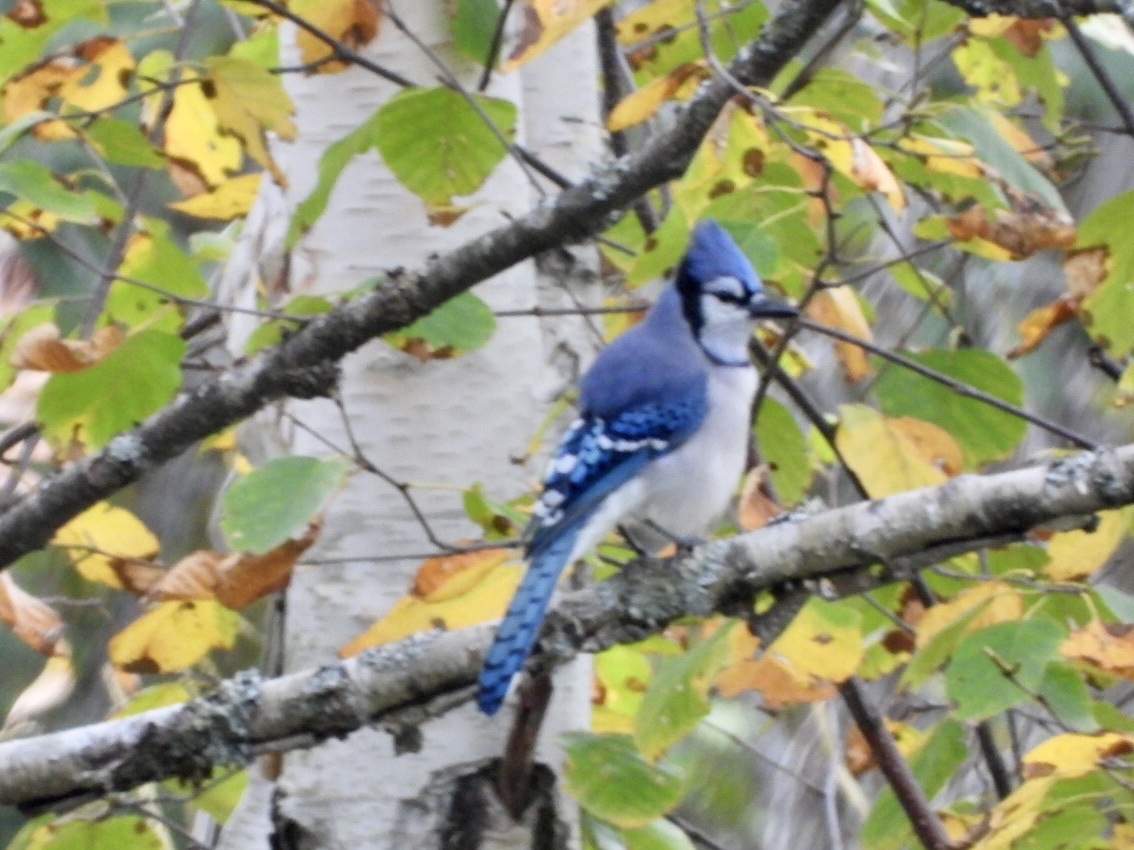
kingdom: Animalia
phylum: Chordata
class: Aves
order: Passeriformes
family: Corvidae
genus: Cyanocitta
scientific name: Cyanocitta cristata
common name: Blue jay
